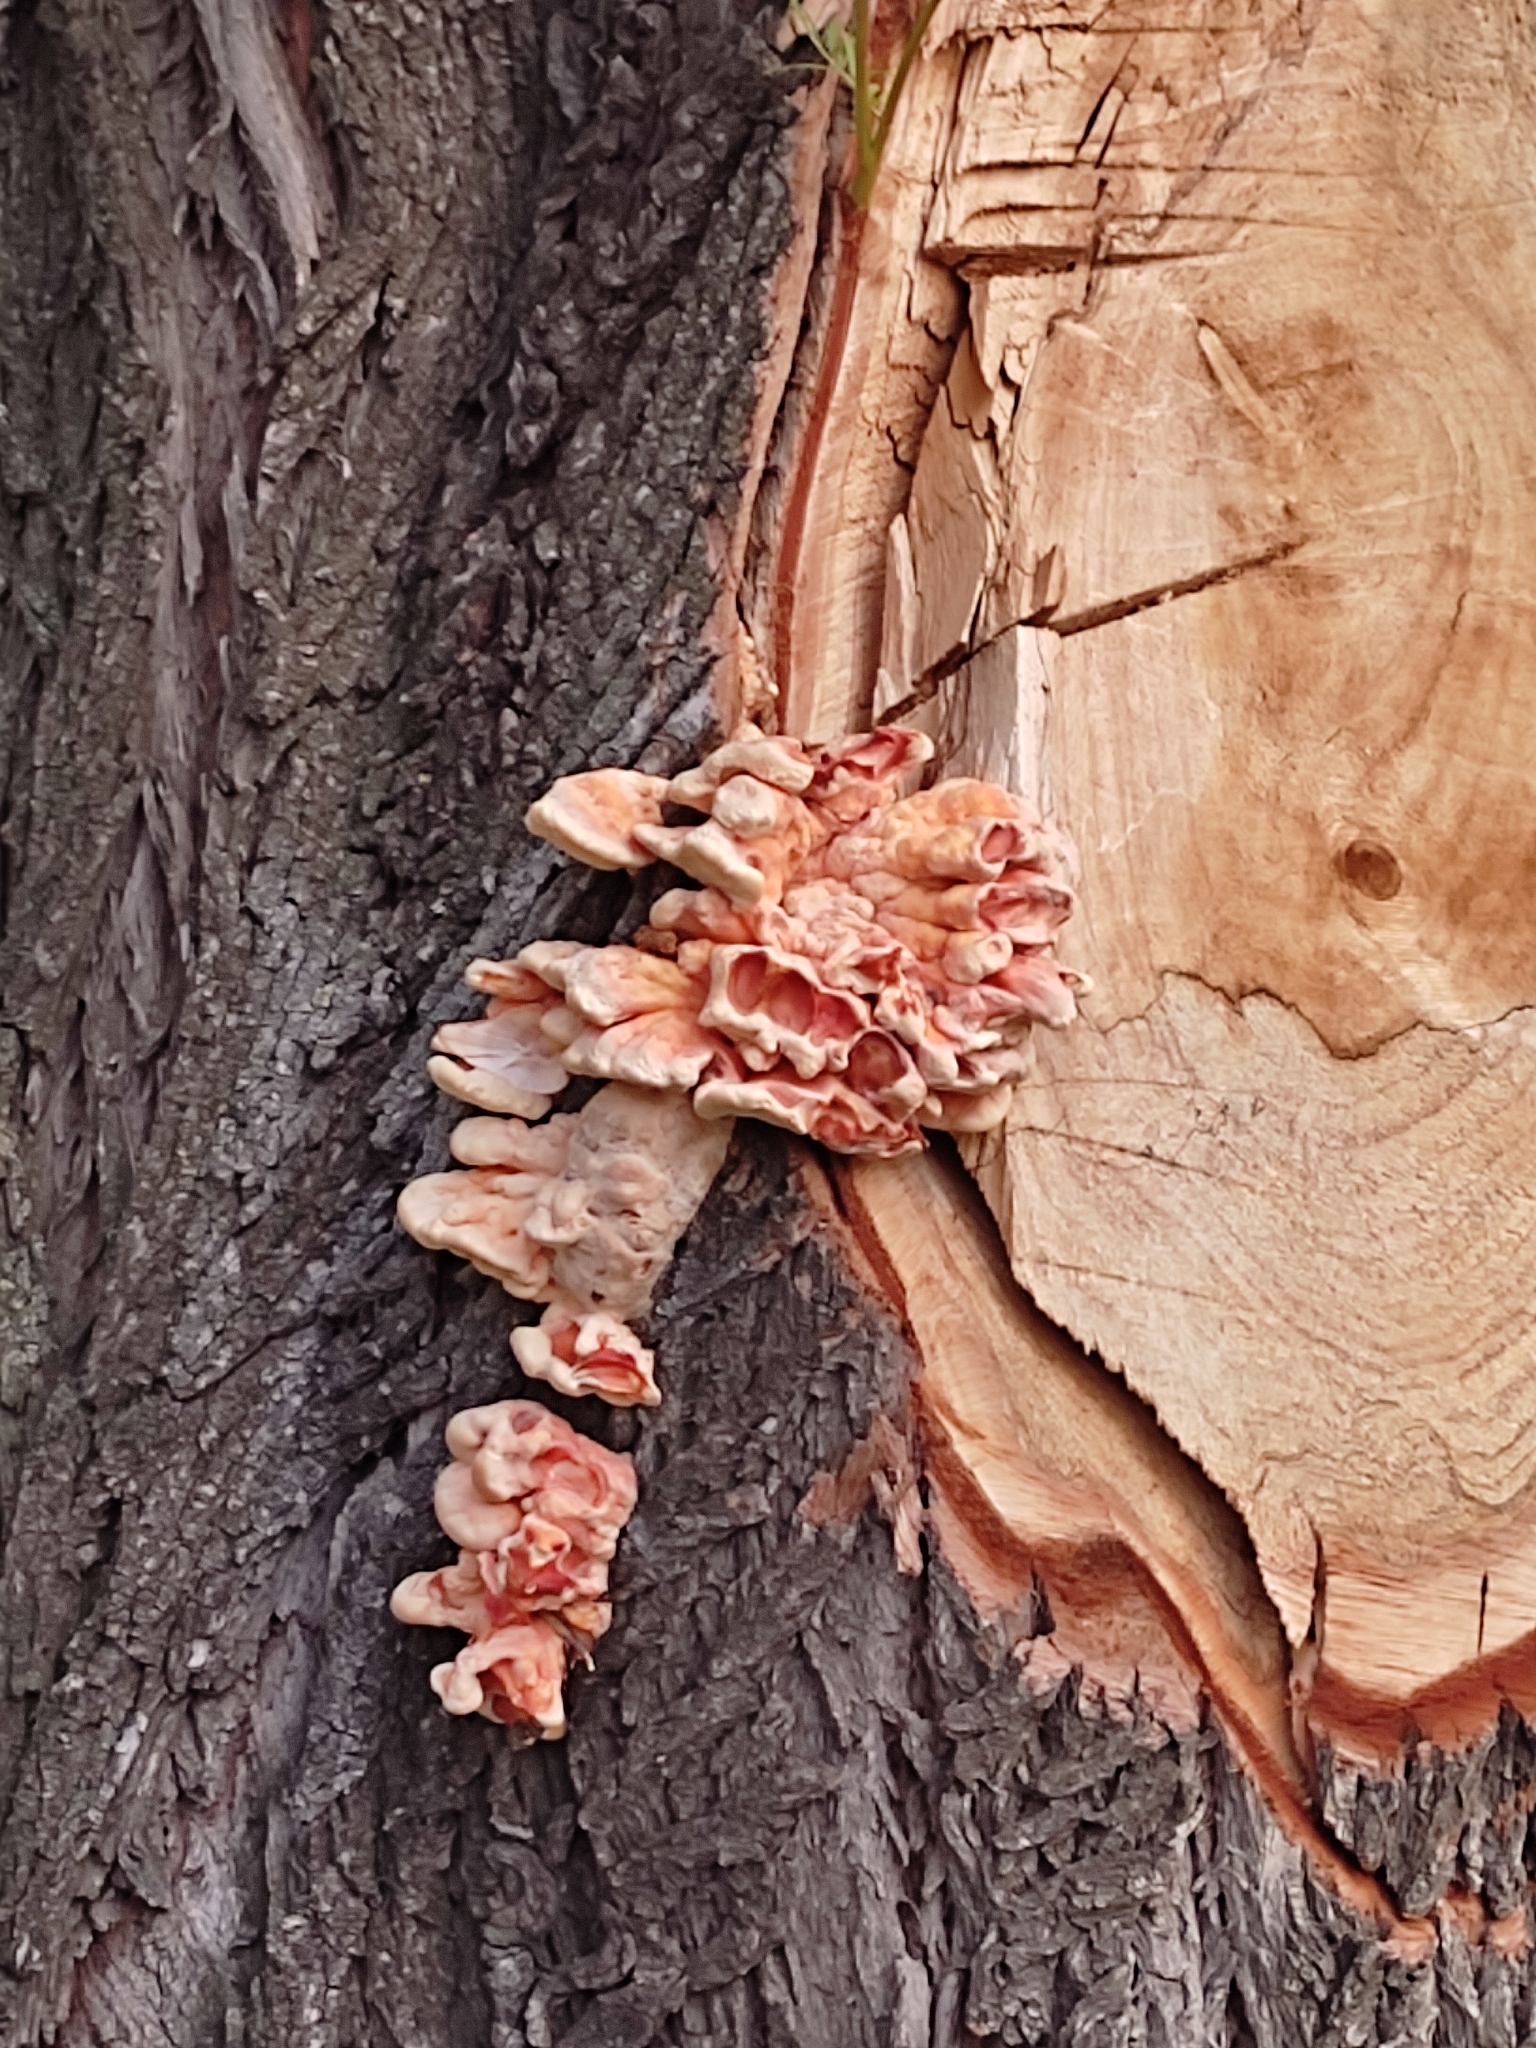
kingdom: Fungi
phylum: Basidiomycota
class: Agaricomycetes
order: Polyporales
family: Laetiporaceae
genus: Laetiporus
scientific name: Laetiporus sulphureus
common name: Chicken of the woods
